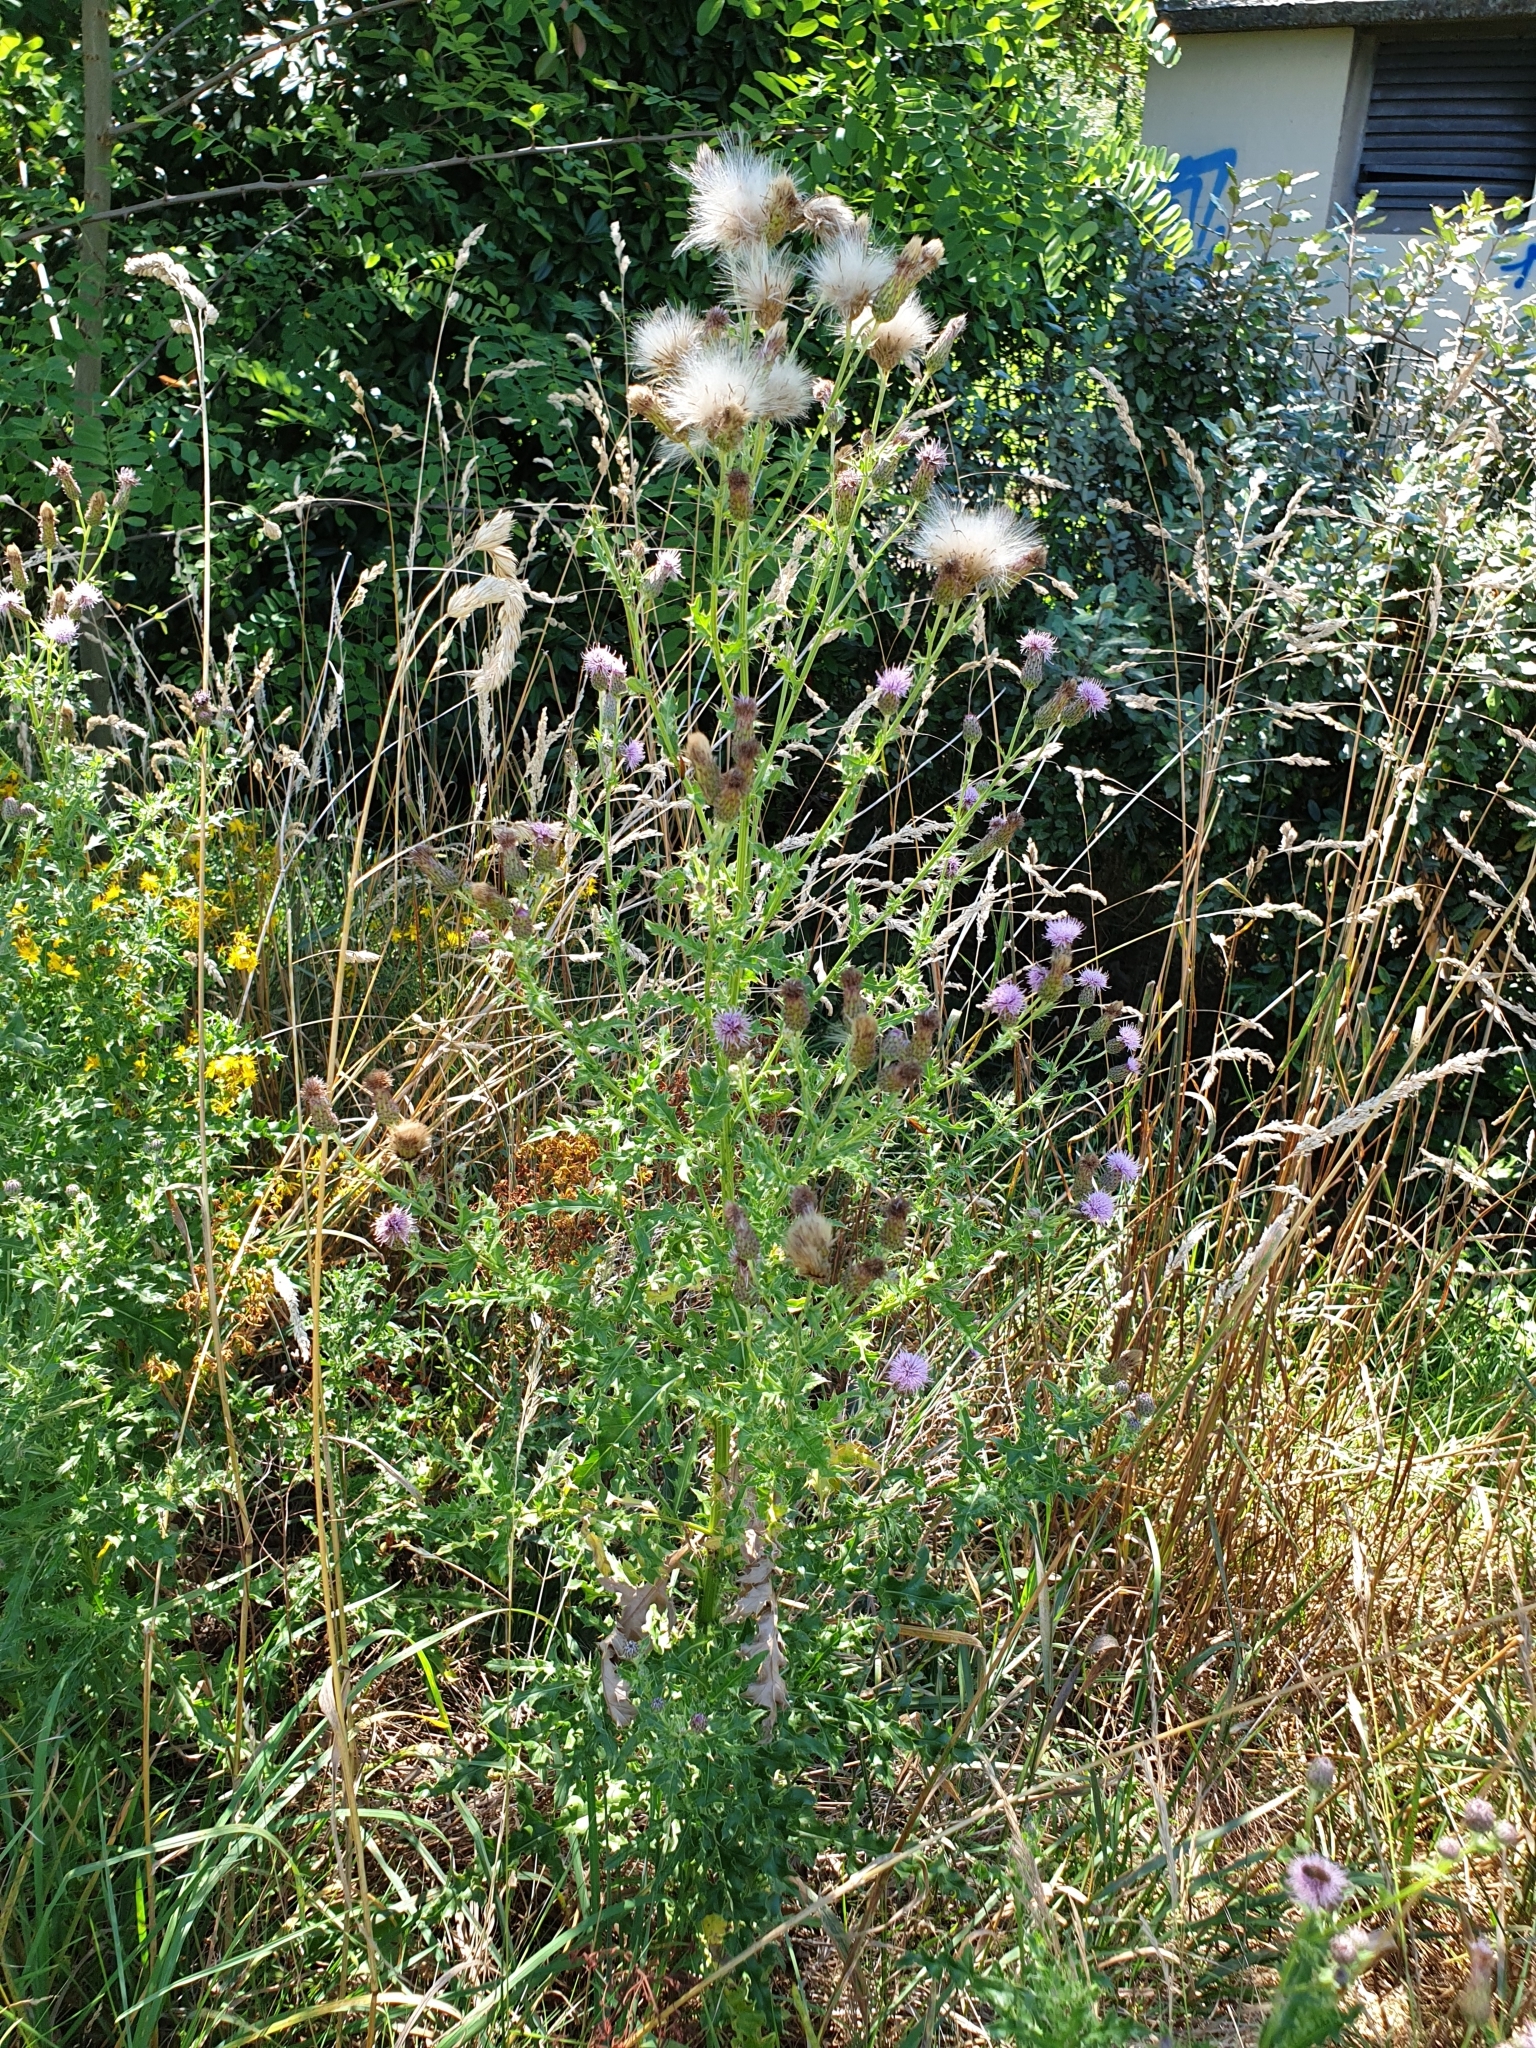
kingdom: Plantae
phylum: Tracheophyta
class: Magnoliopsida
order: Asterales
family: Asteraceae
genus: Cirsium
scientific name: Cirsium arvense
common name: Creeping thistle
